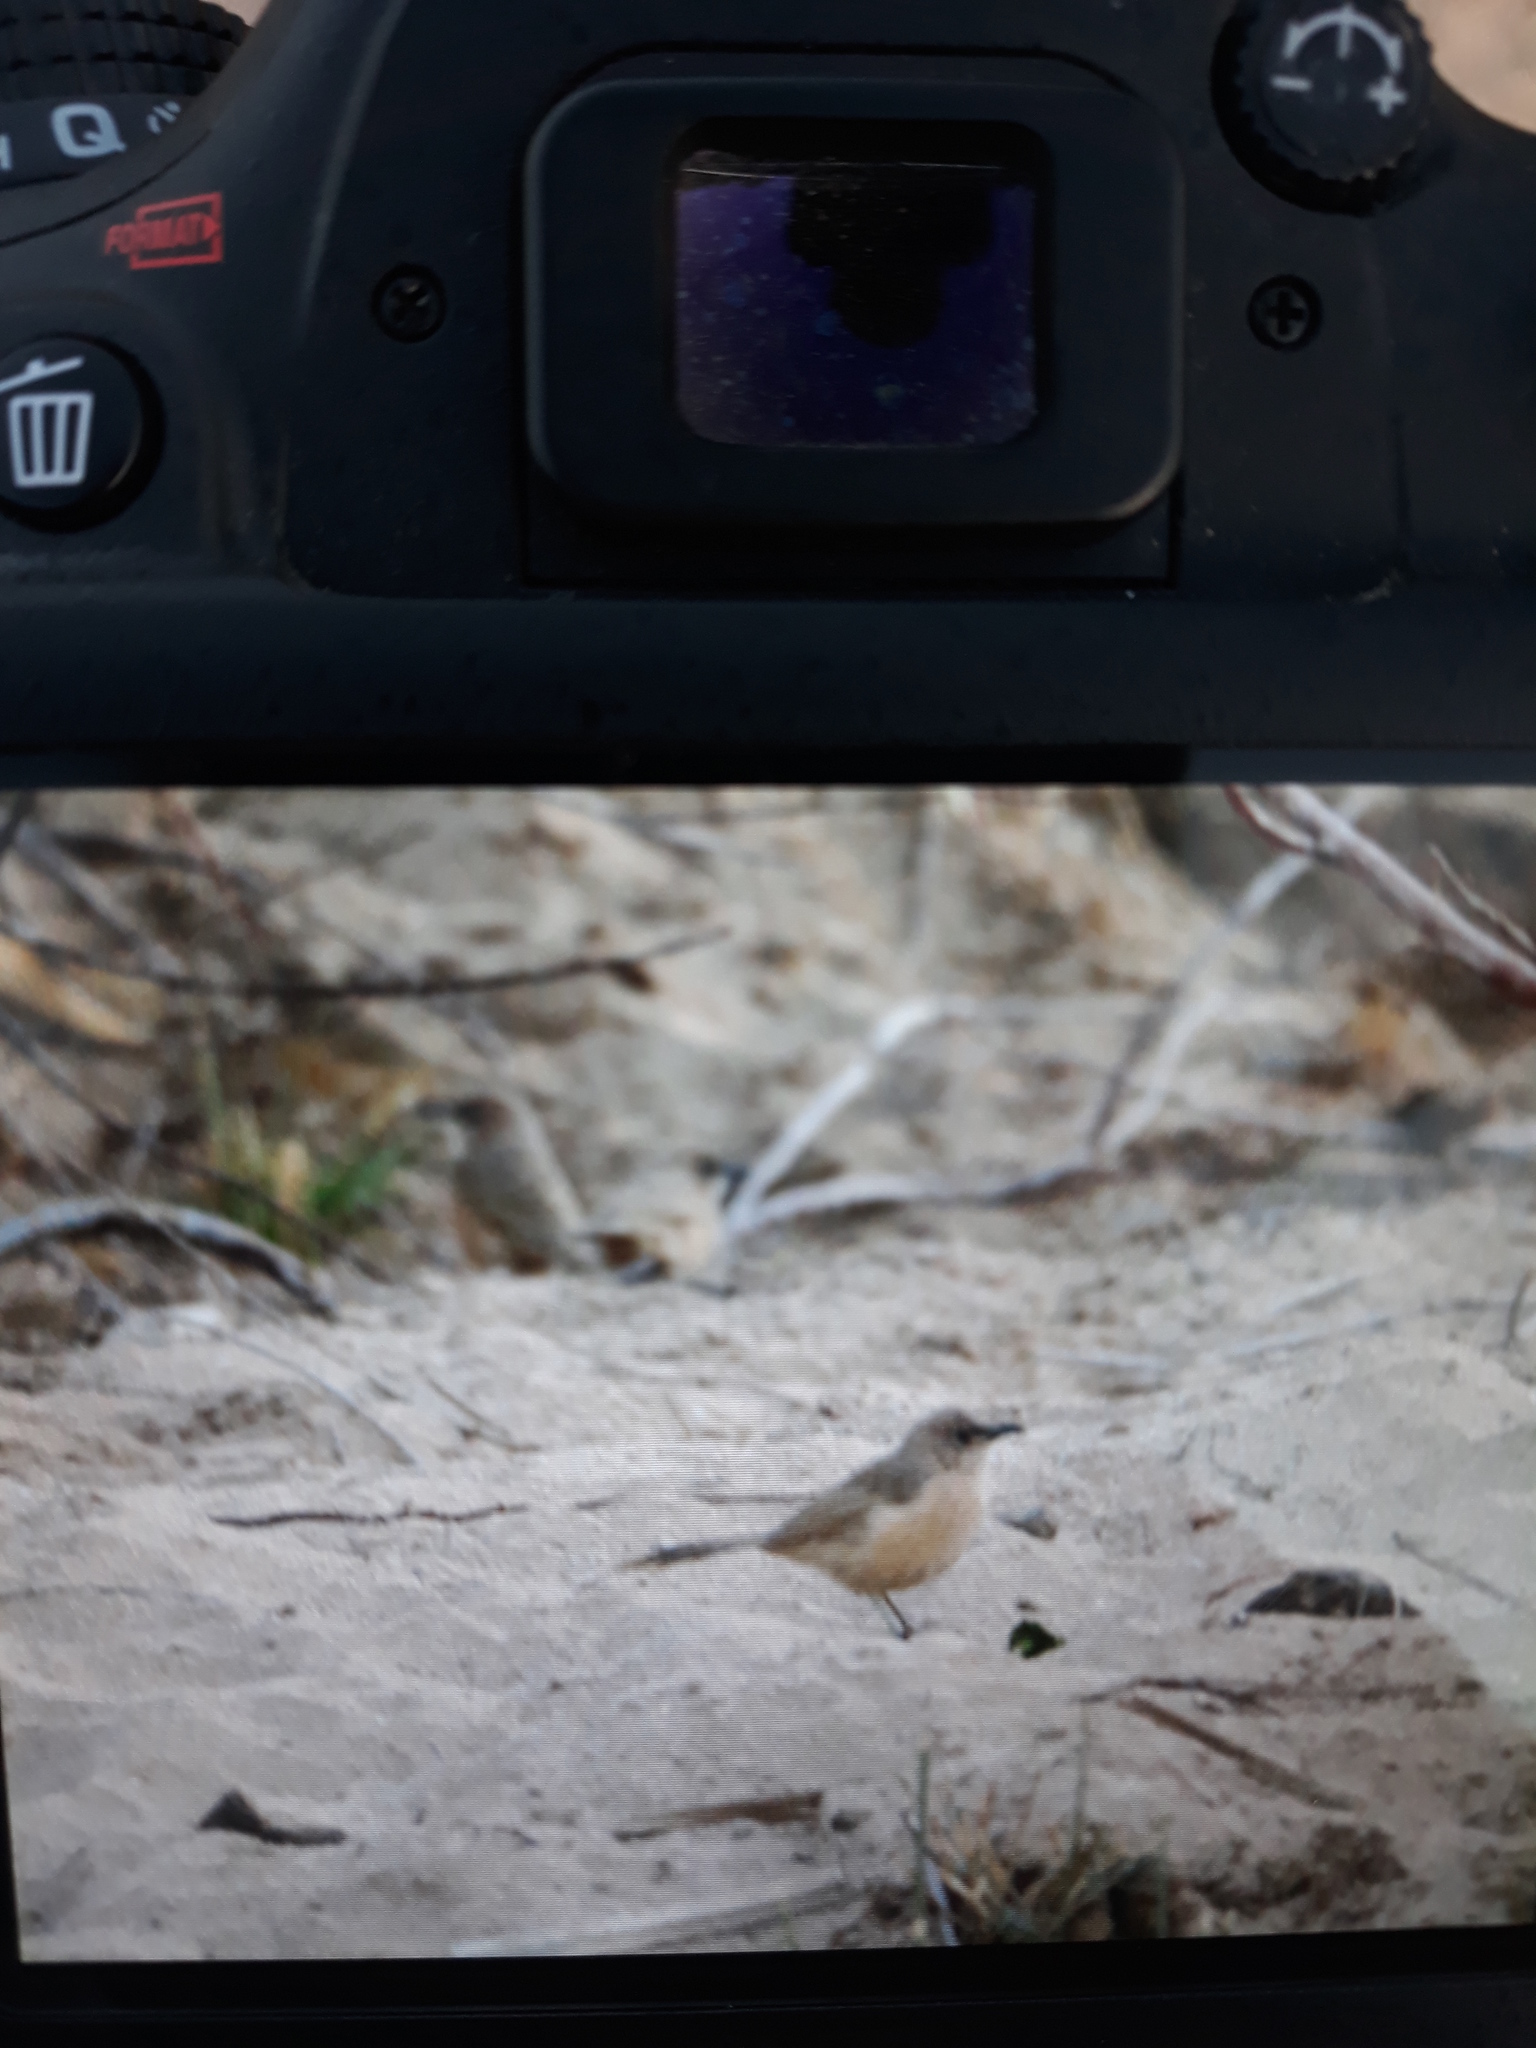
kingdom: Animalia
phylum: Chordata
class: Aves
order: Passeriformes
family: Leiothrichidae
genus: Turdoides
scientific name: Turdoides fulva
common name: Fulvous babbler
